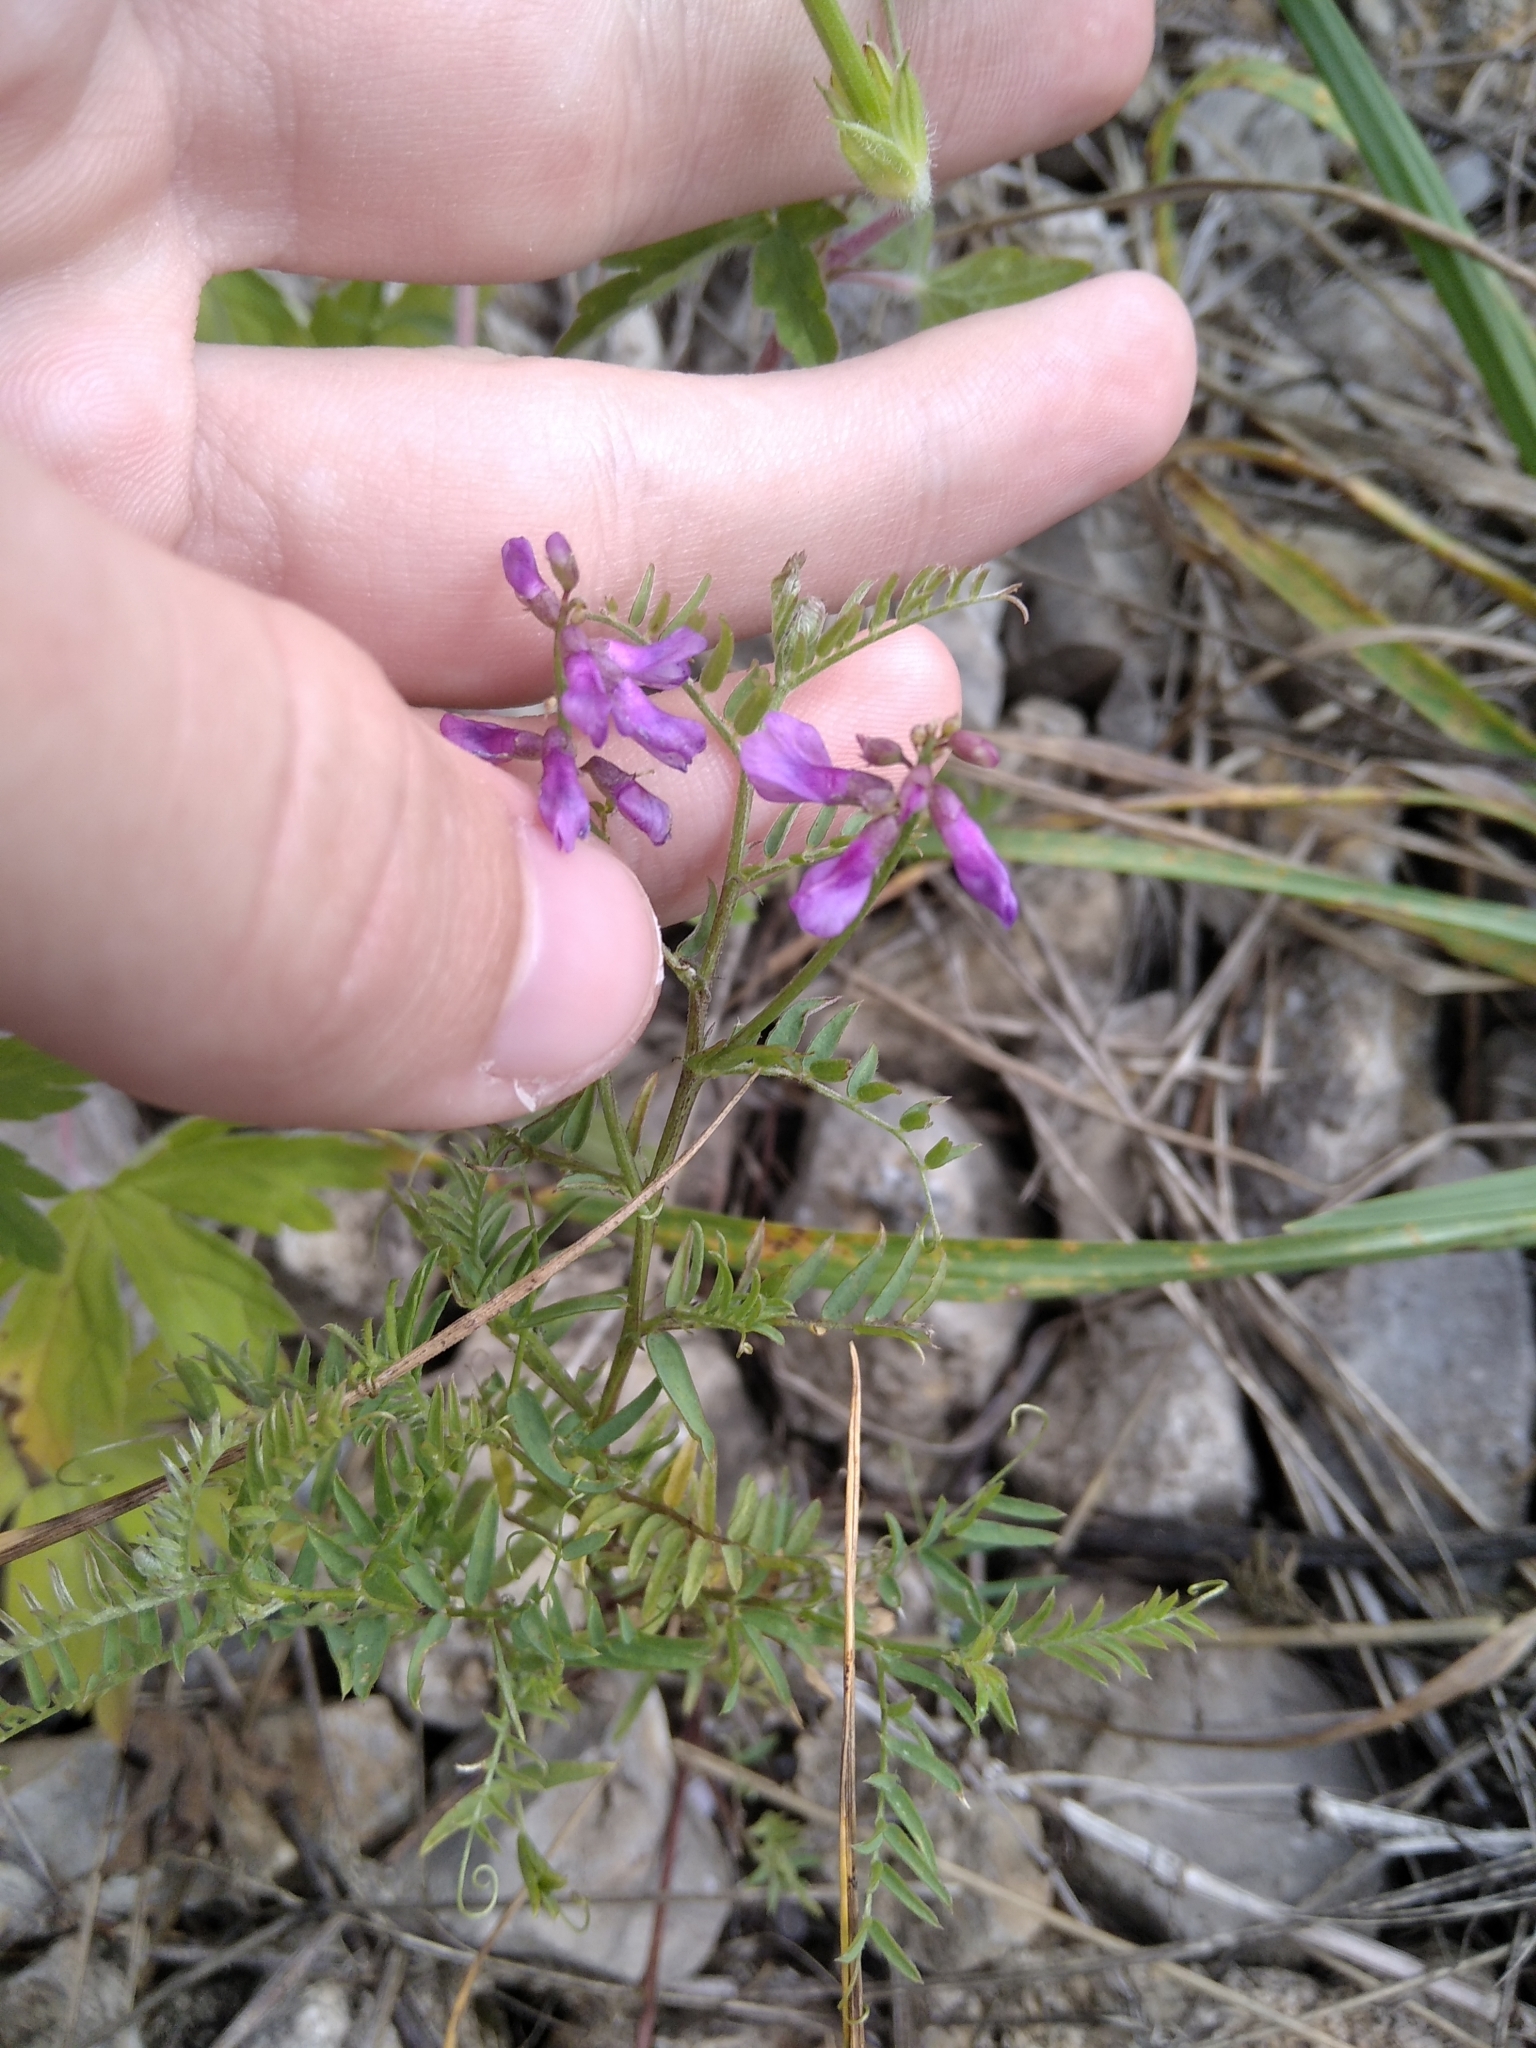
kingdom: Plantae
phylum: Tracheophyta
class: Magnoliopsida
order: Fabales
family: Fabaceae
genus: Vicia
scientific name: Vicia cracca
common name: Bird vetch
